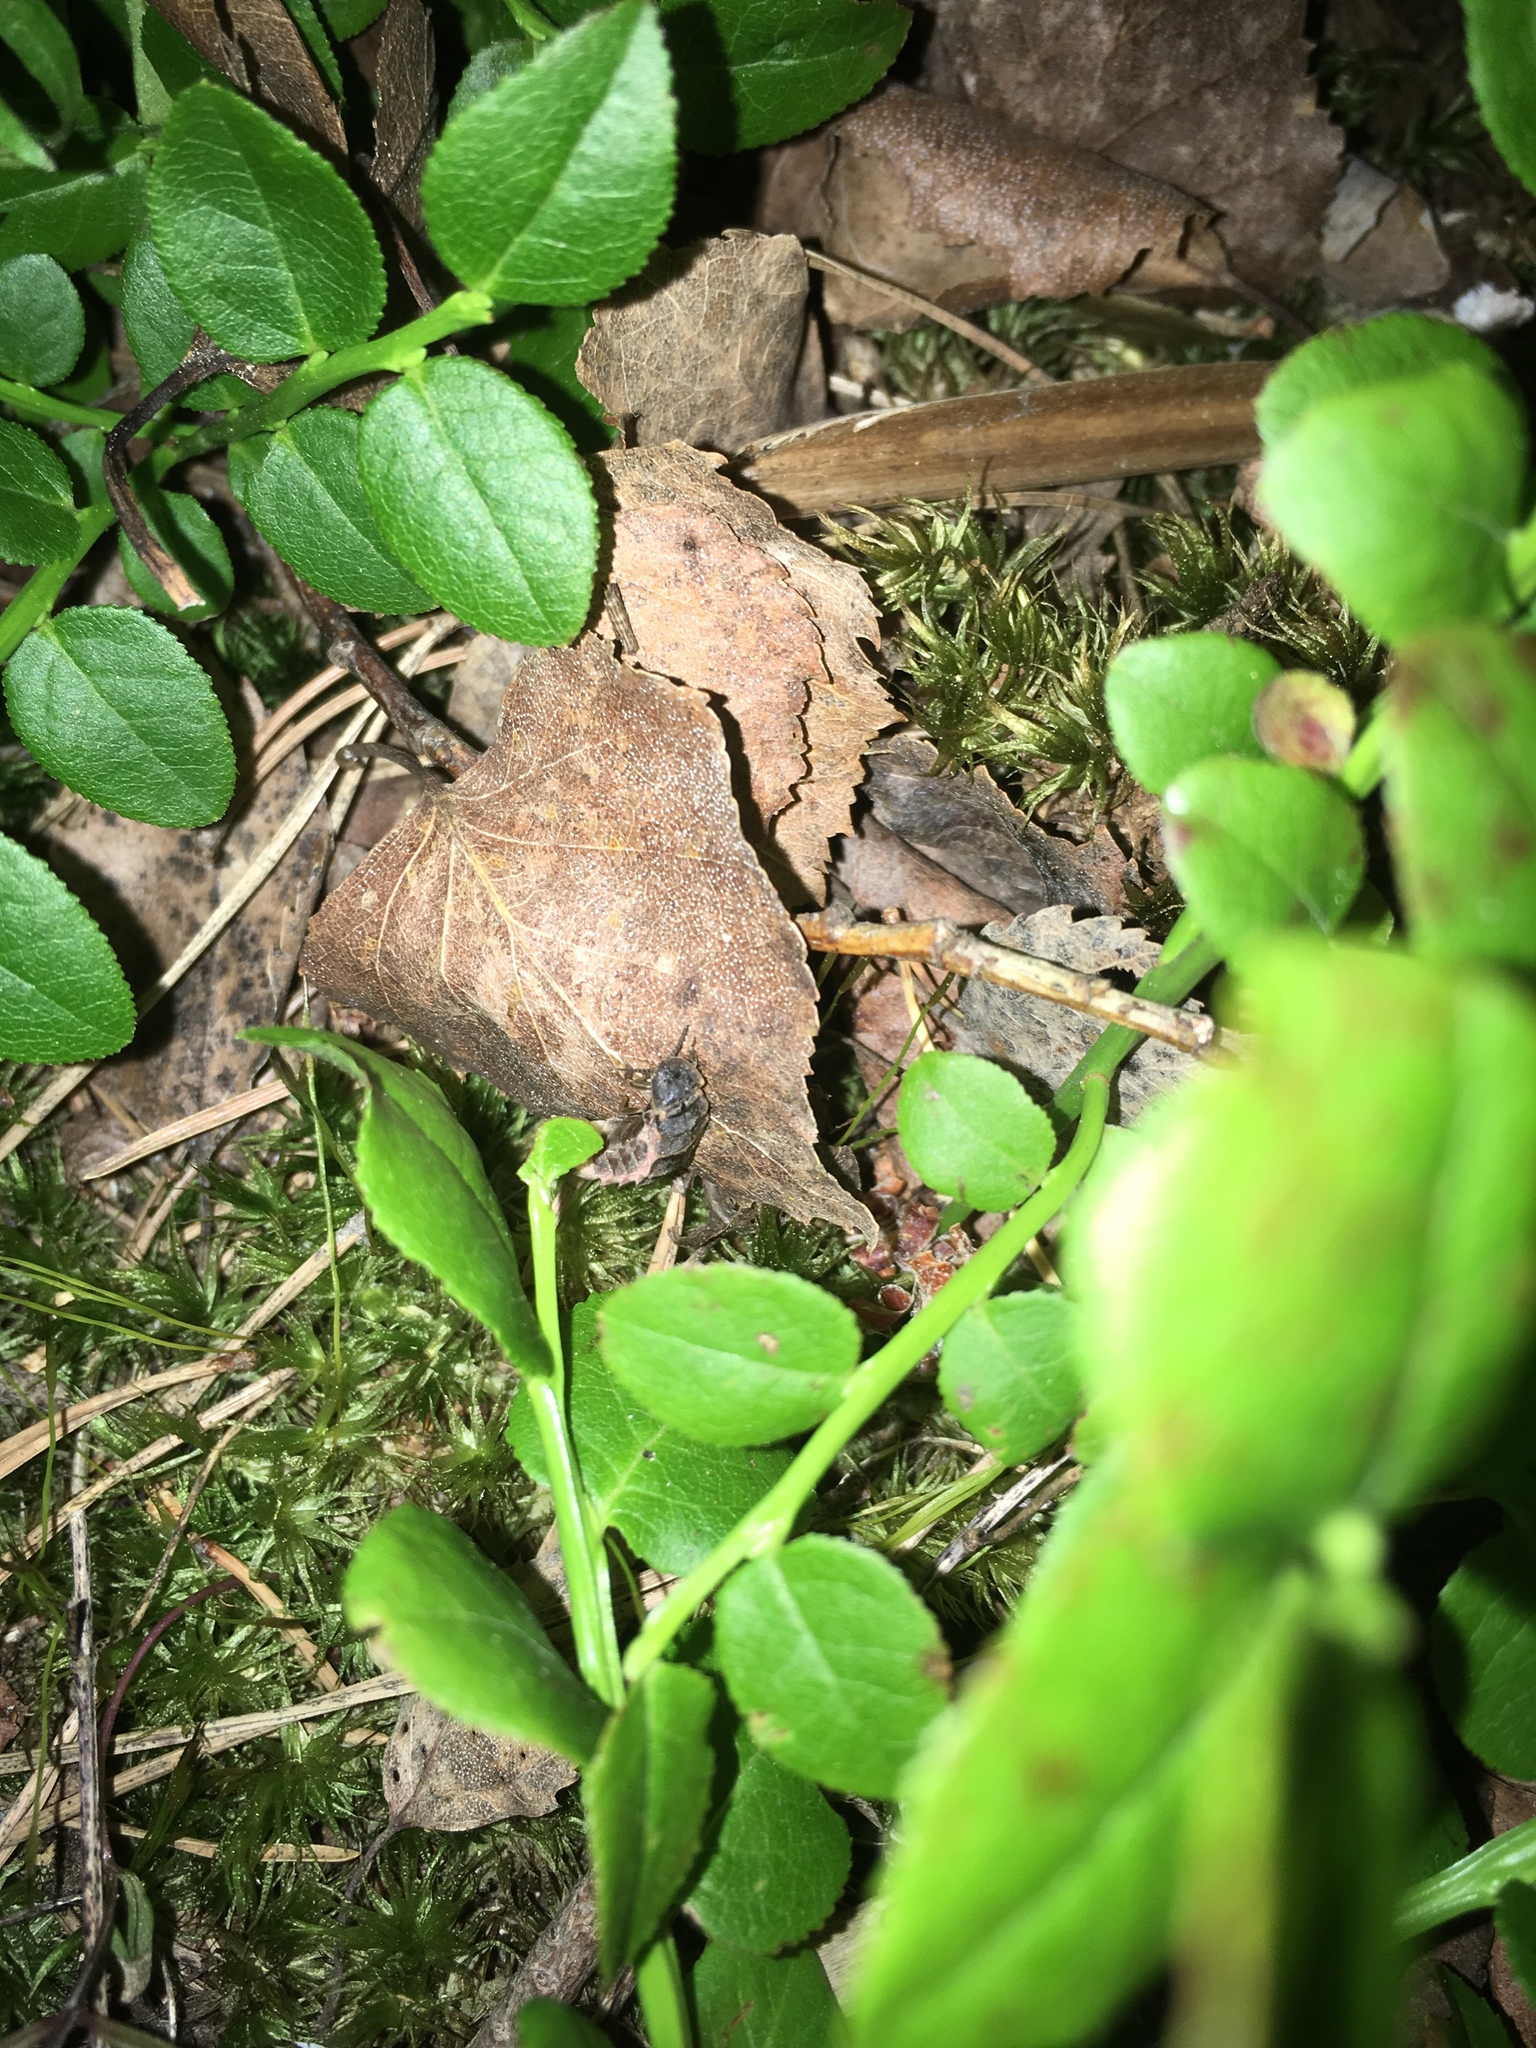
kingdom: Animalia
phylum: Arthropoda
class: Insecta
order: Coleoptera
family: Lampyridae
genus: Lampyris
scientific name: Lampyris noctiluca
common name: Glow-worm
